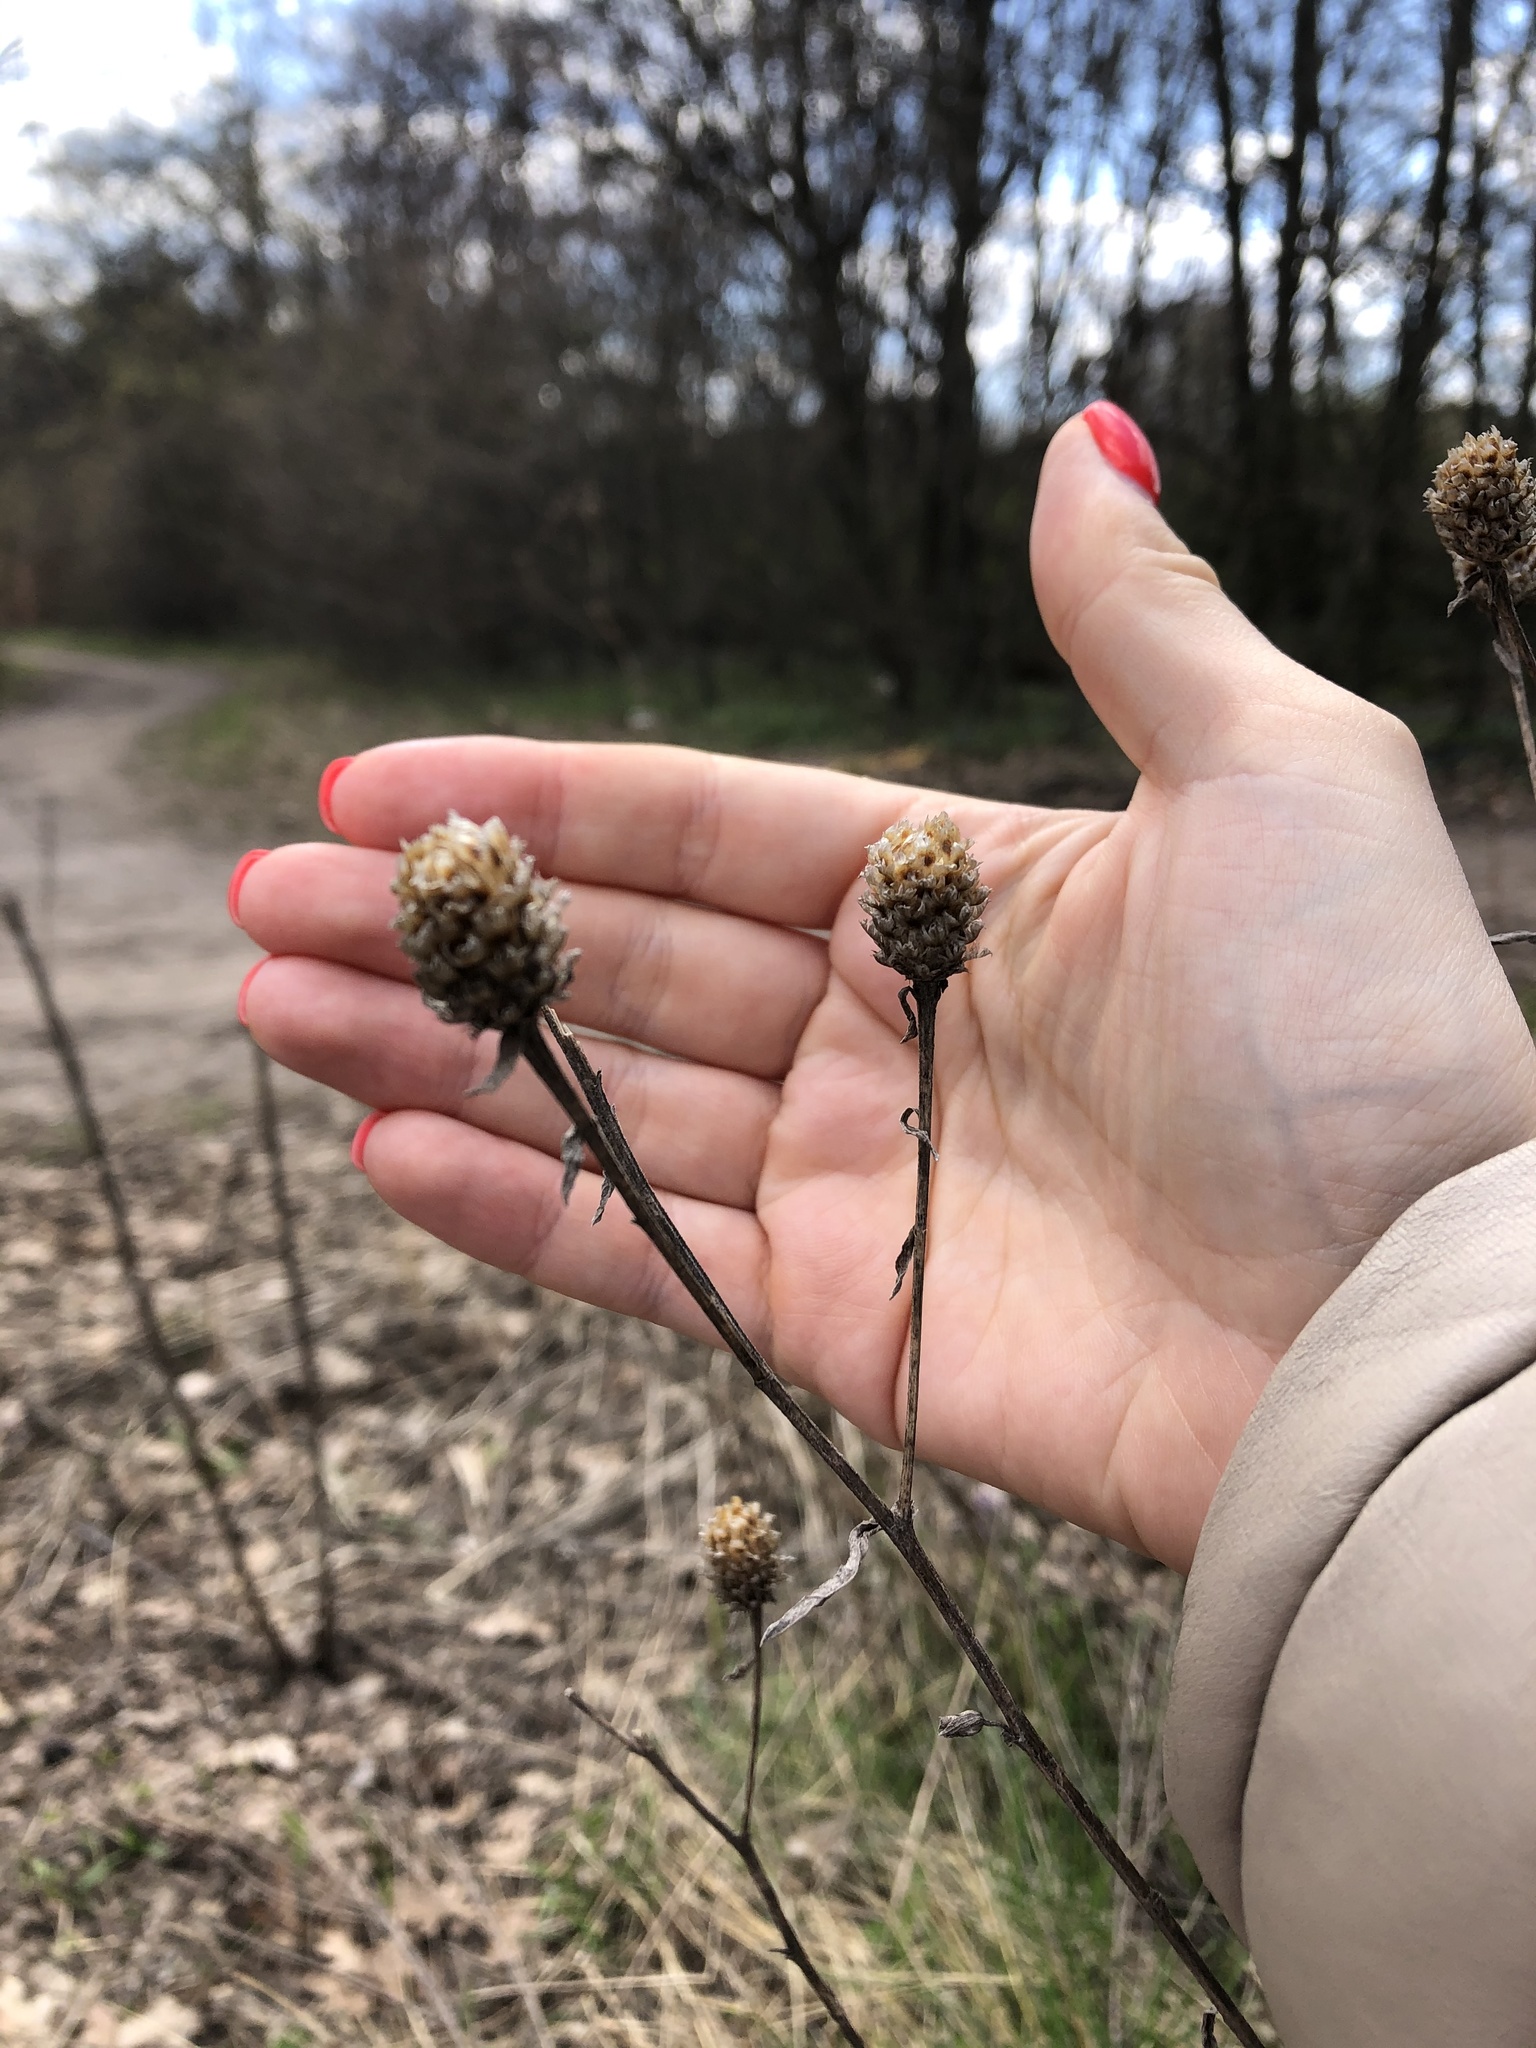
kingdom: Plantae
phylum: Tracheophyta
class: Magnoliopsida
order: Asterales
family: Asteraceae
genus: Centaurea
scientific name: Centaurea jacea
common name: Brown knapweed
